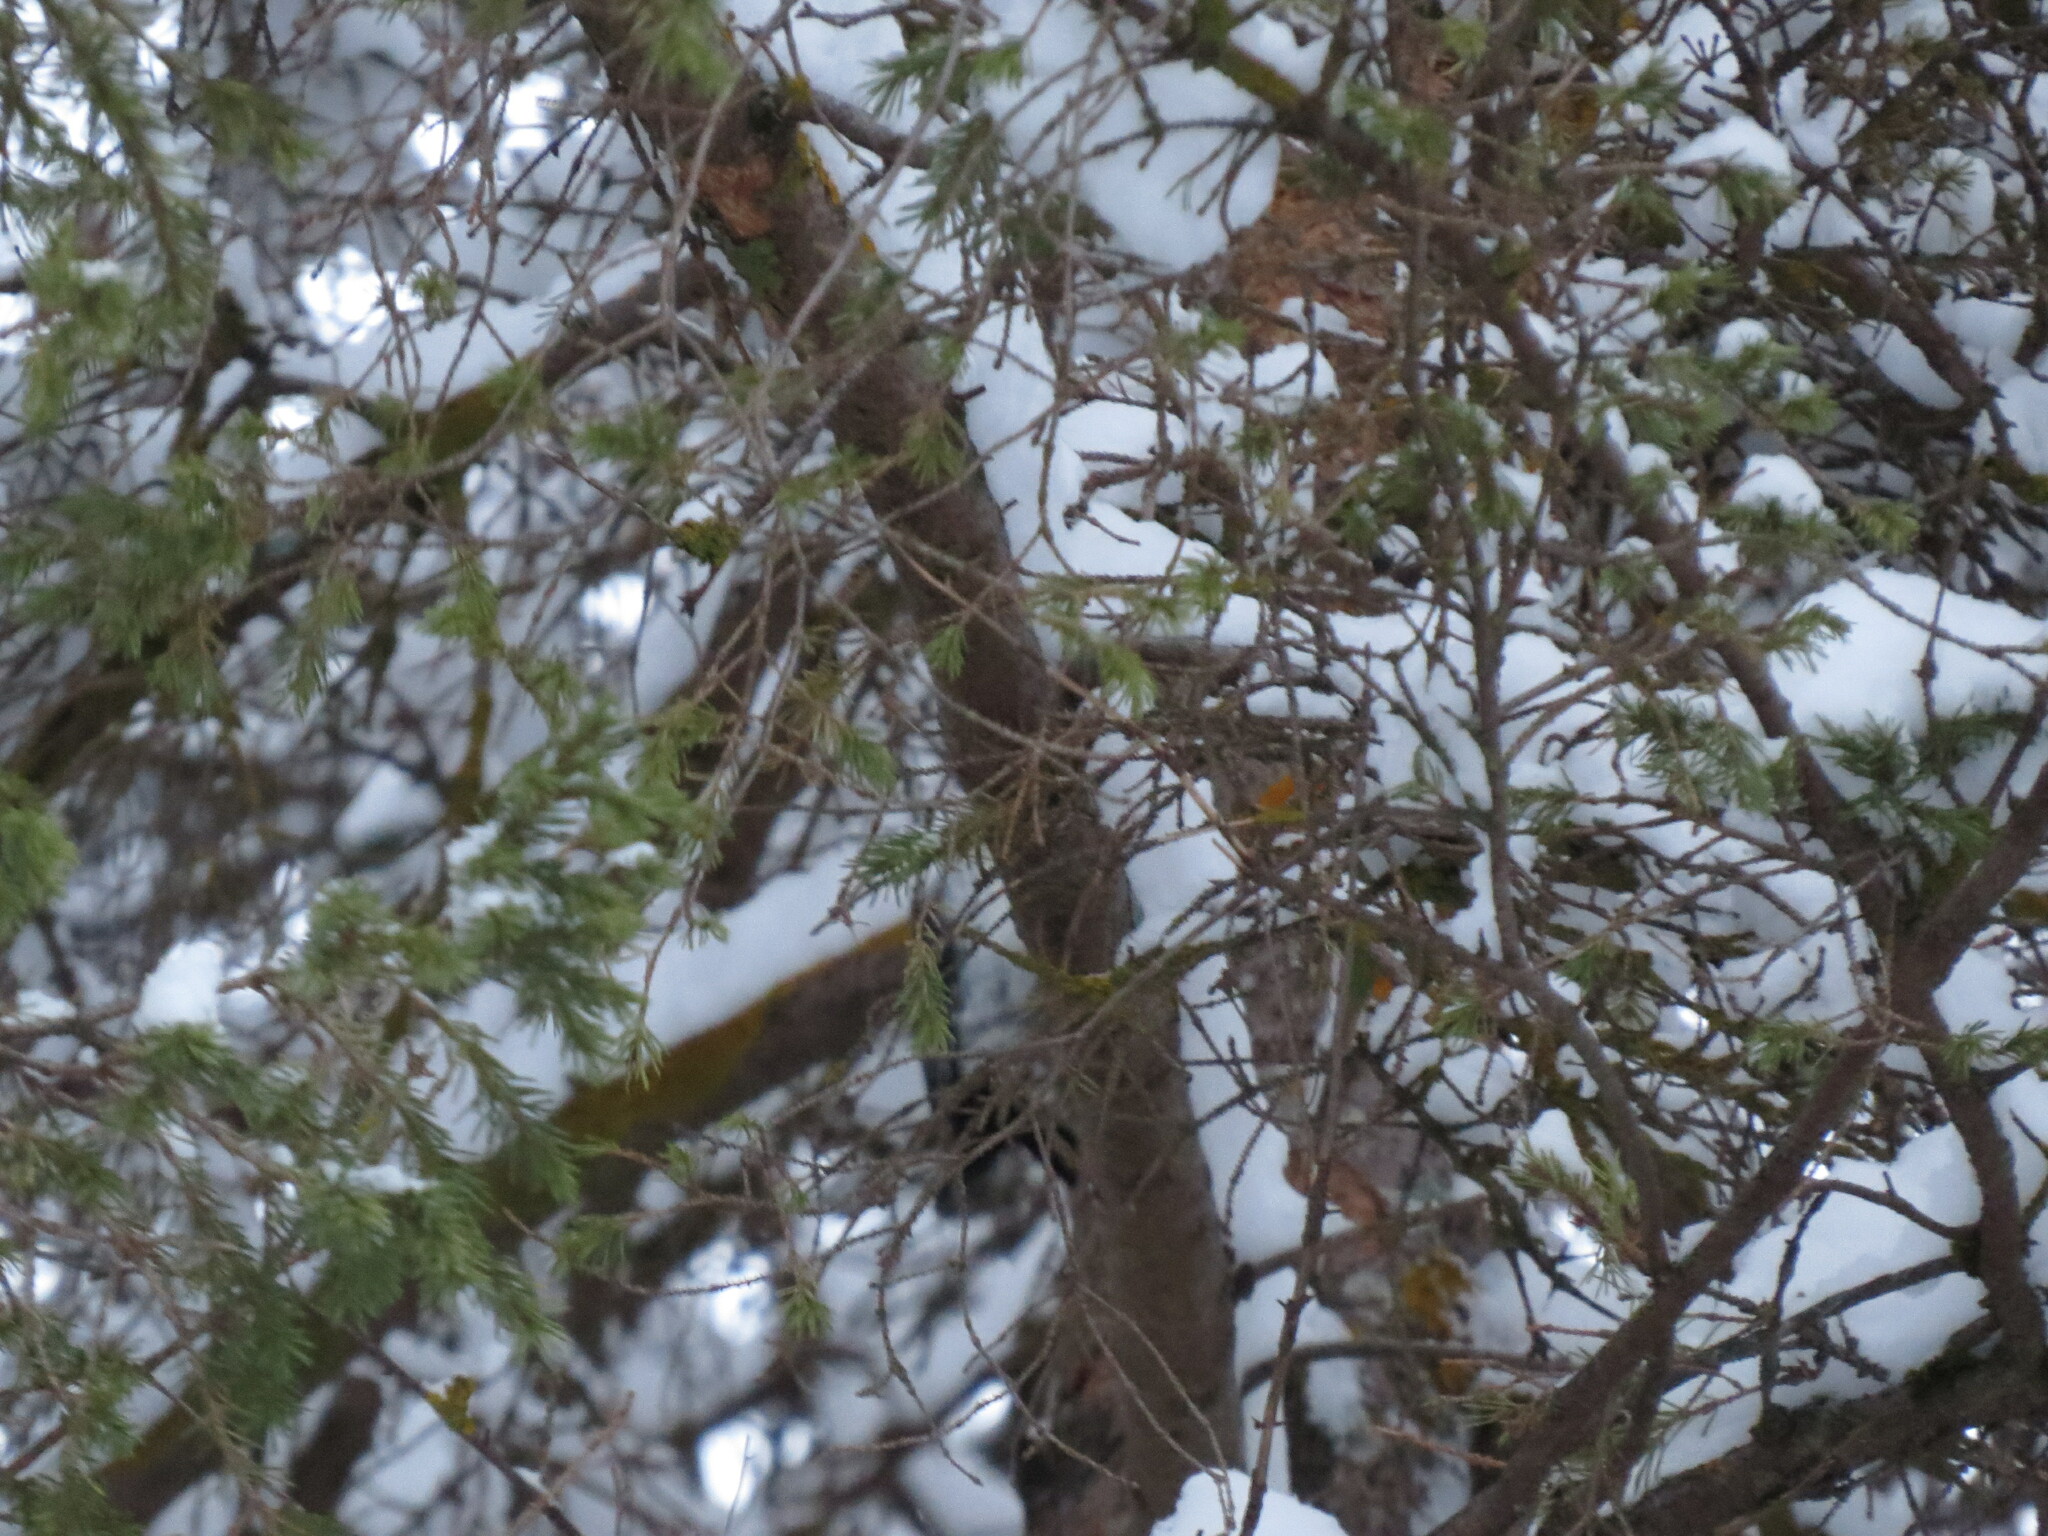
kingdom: Animalia
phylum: Chordata
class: Aves
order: Piciformes
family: Picidae
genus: Picoides
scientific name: Picoides tridactylus
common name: Eurasian three-toed woodpecker
